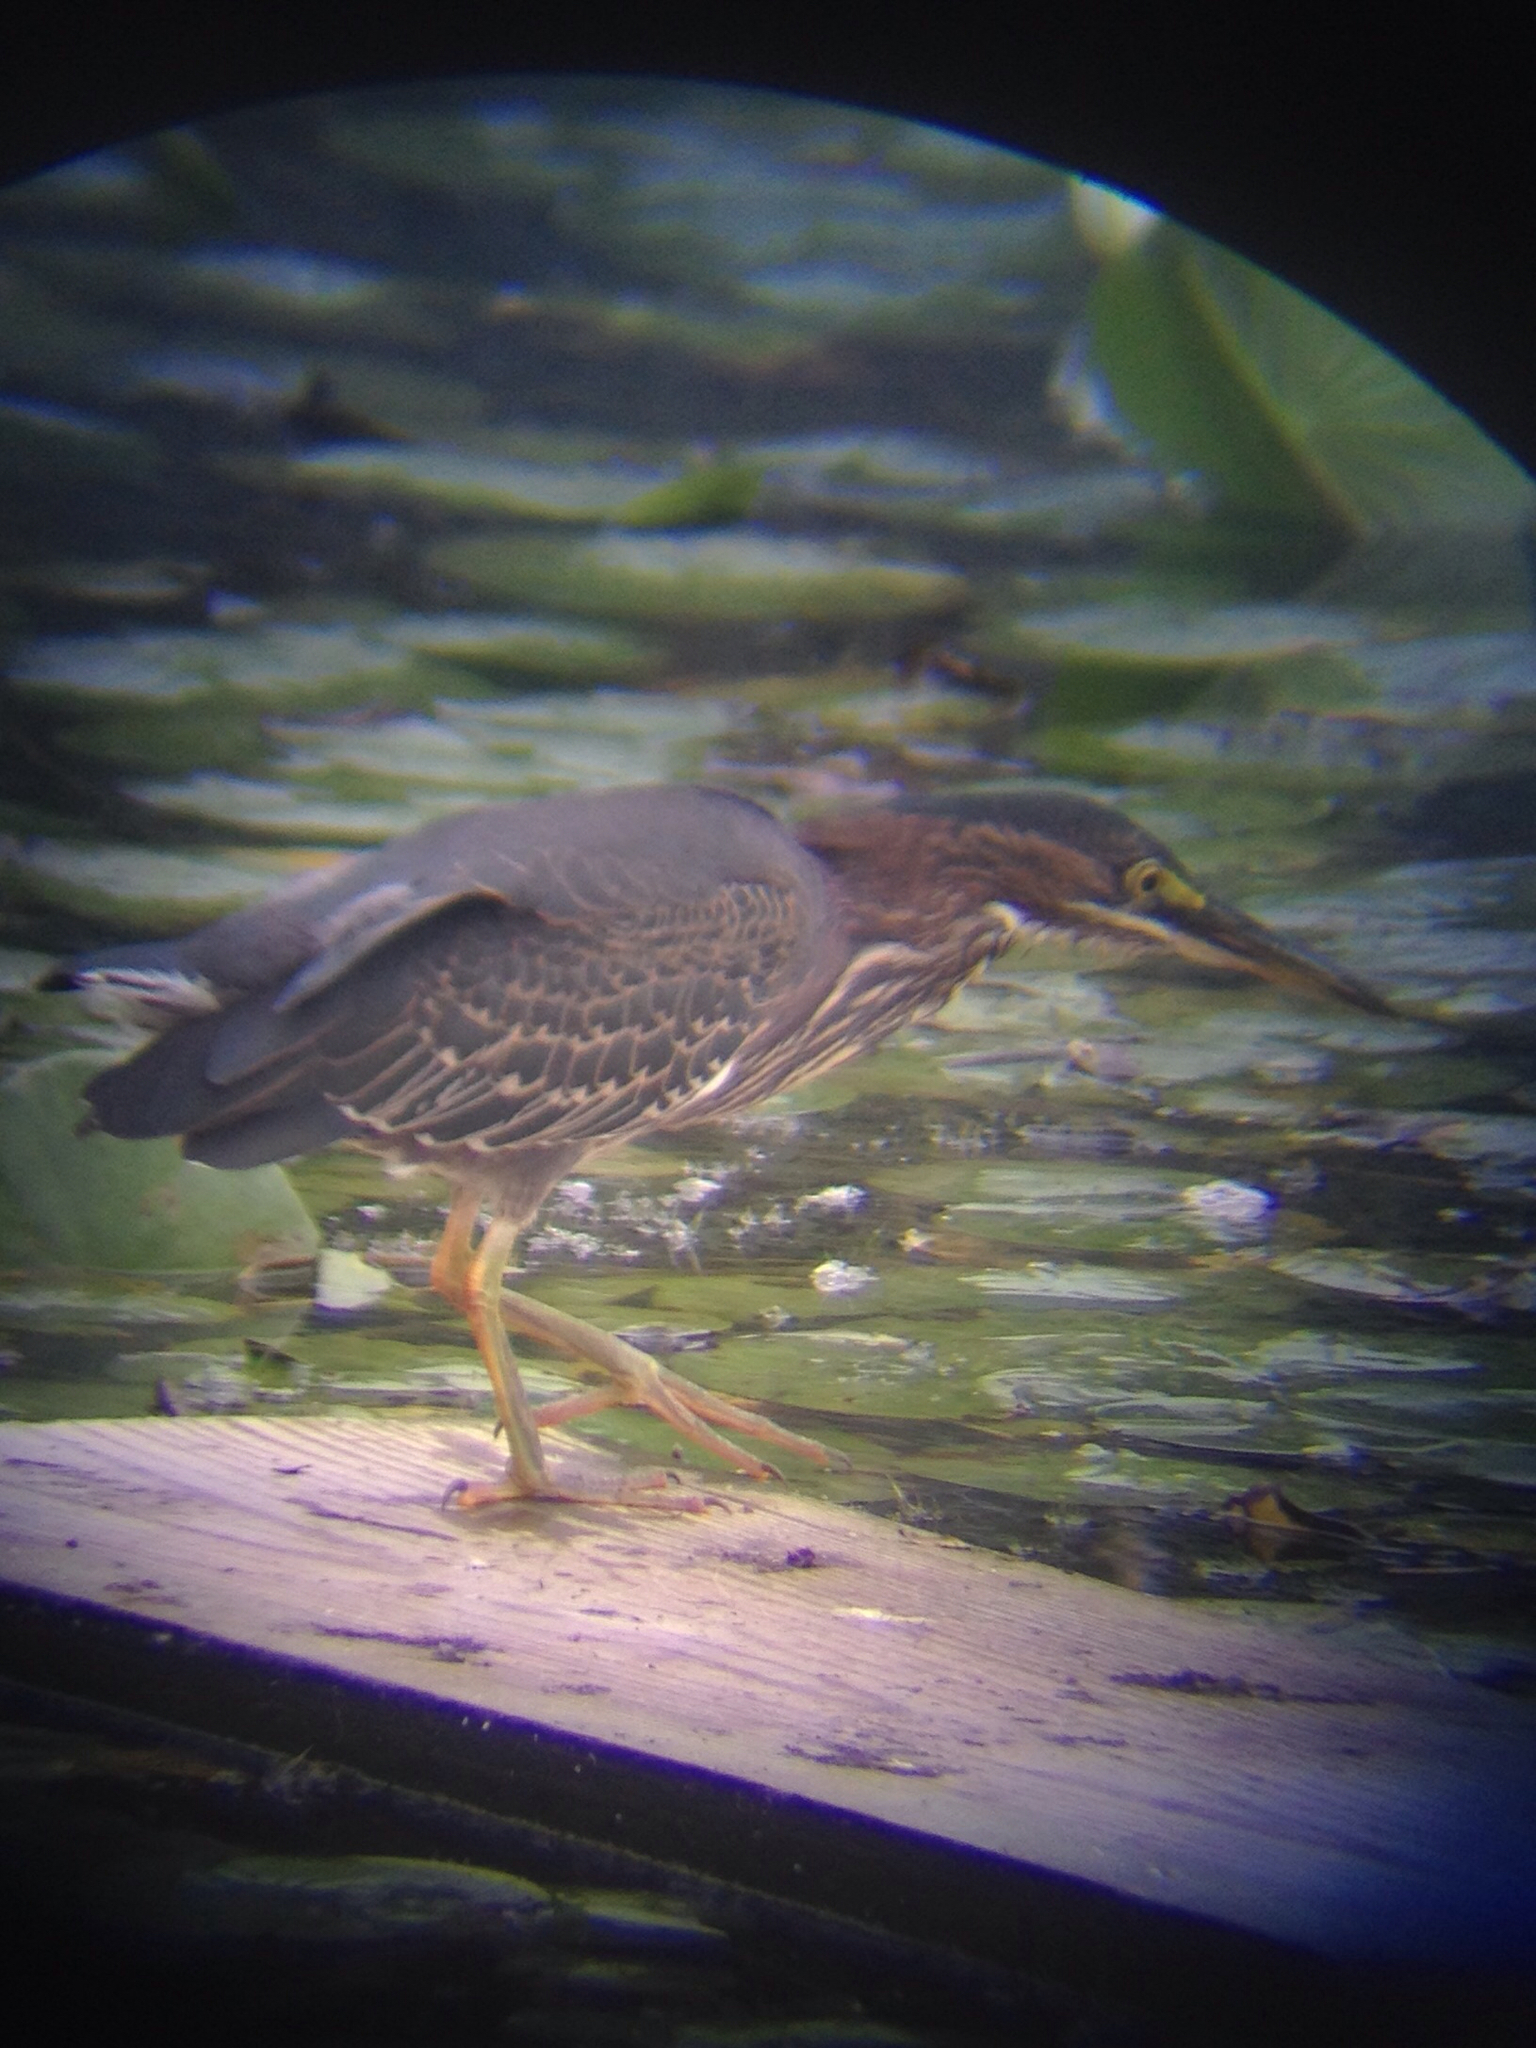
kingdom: Animalia
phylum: Chordata
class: Aves
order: Pelecaniformes
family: Ardeidae
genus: Butorides
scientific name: Butorides virescens
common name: Green heron
